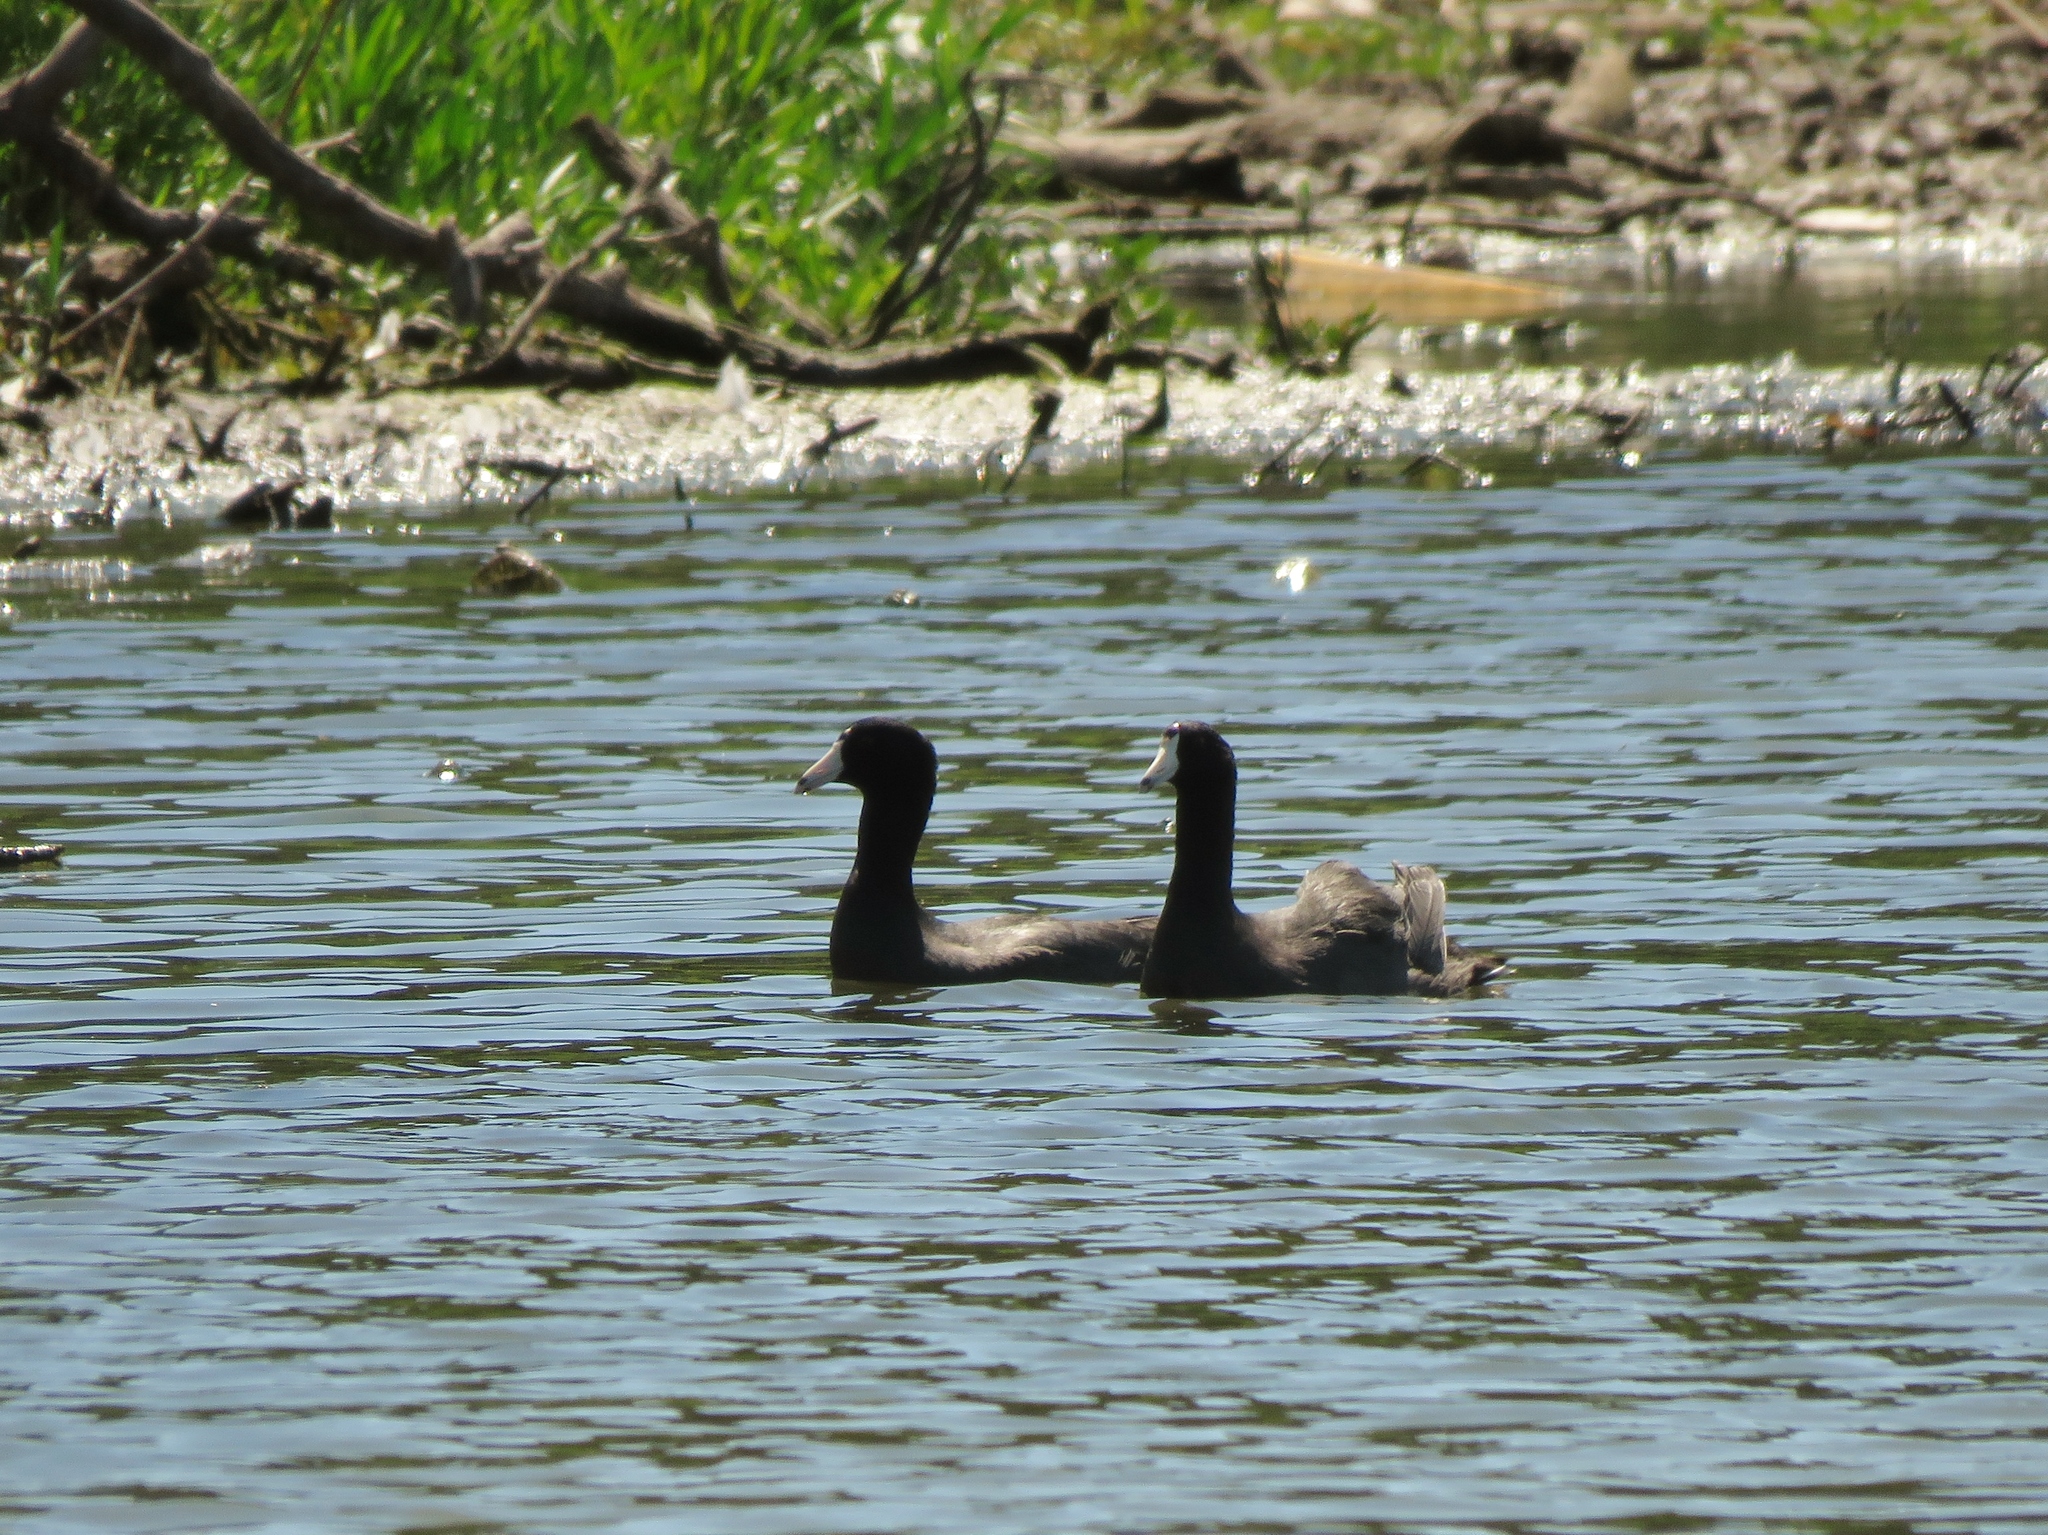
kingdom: Animalia
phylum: Chordata
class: Aves
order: Gruiformes
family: Rallidae
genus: Fulica
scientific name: Fulica americana
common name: American coot
